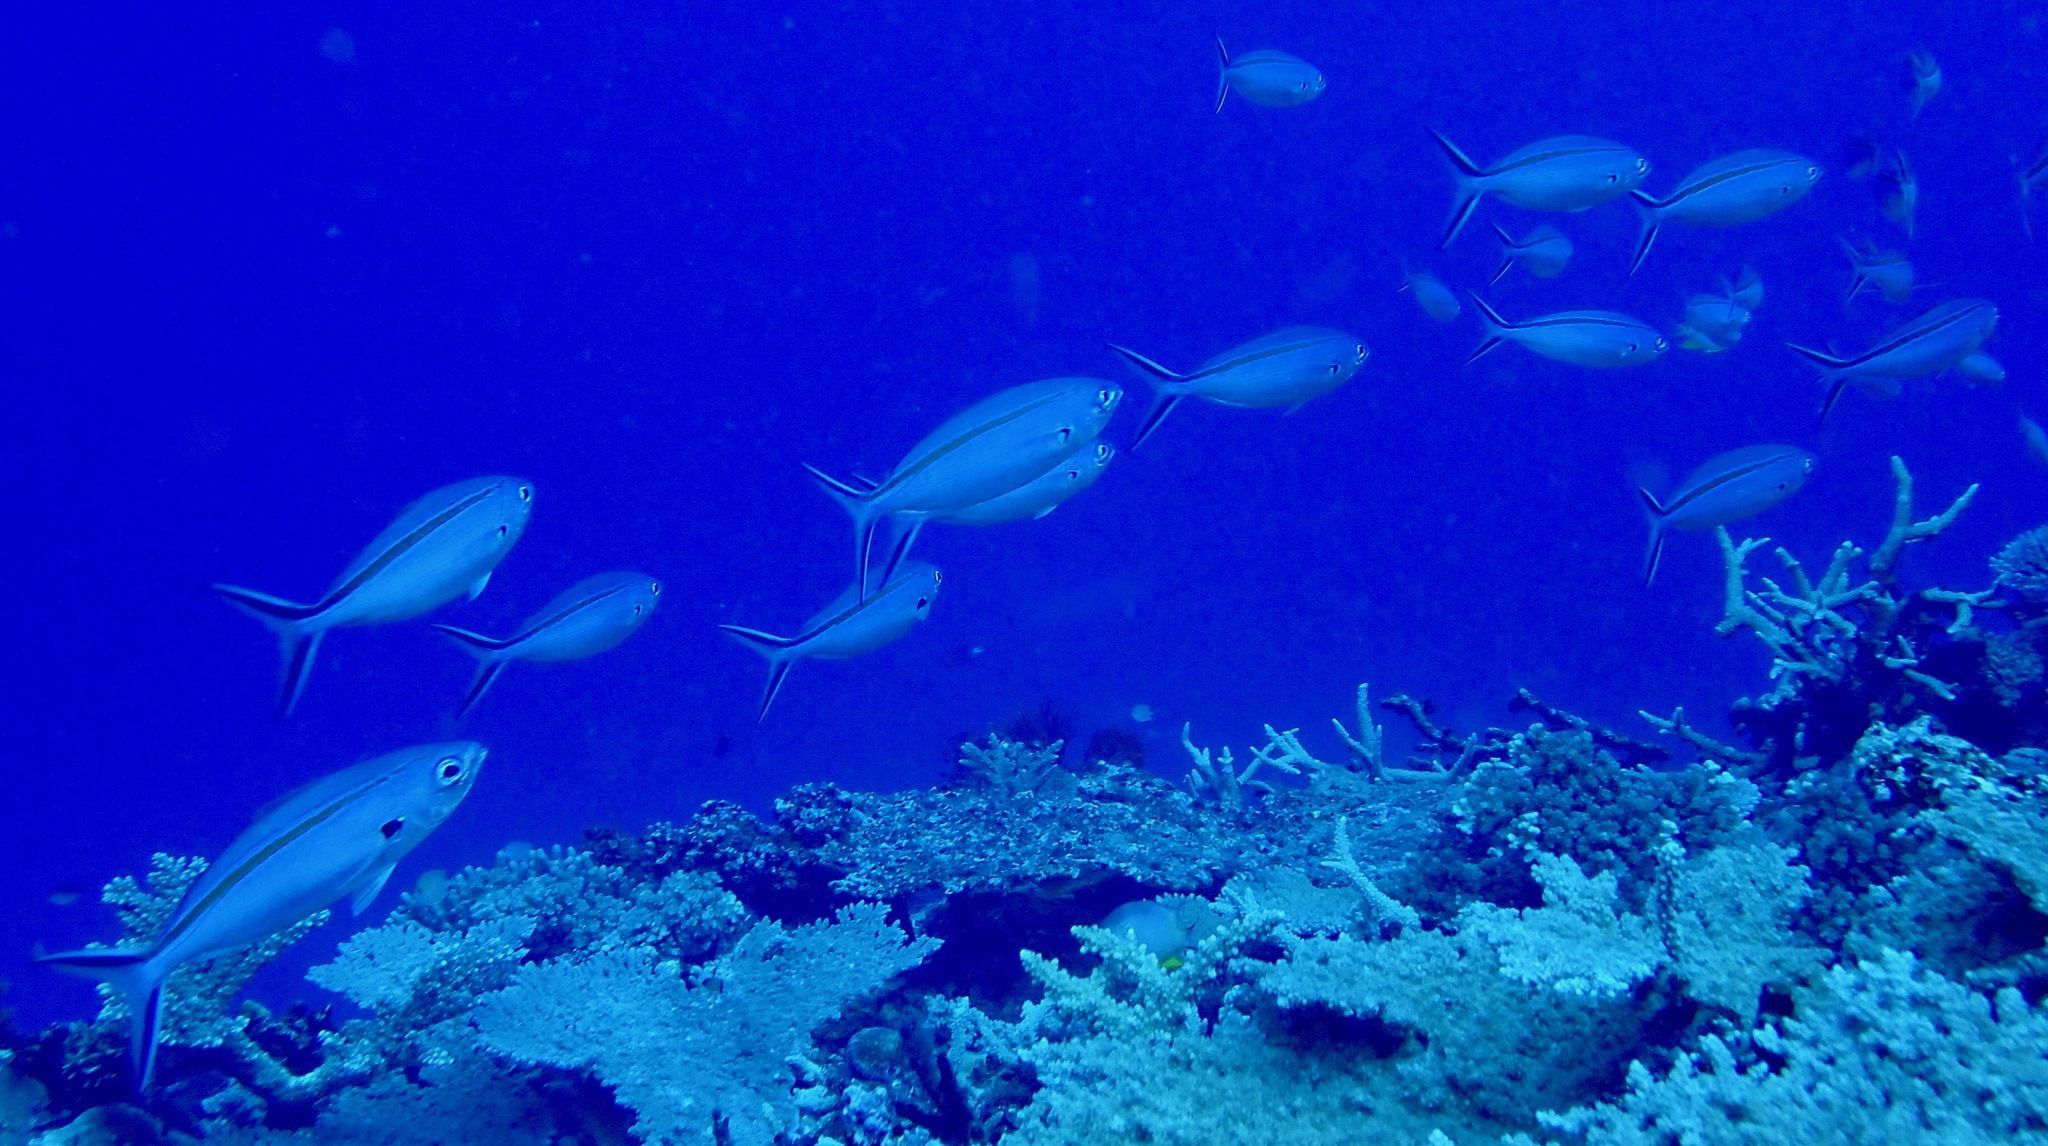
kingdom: Animalia
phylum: Chordata
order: Perciformes
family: Caesionidae
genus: Caesio
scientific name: Caesio caerulaurea
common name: Blue and gold fusilier
